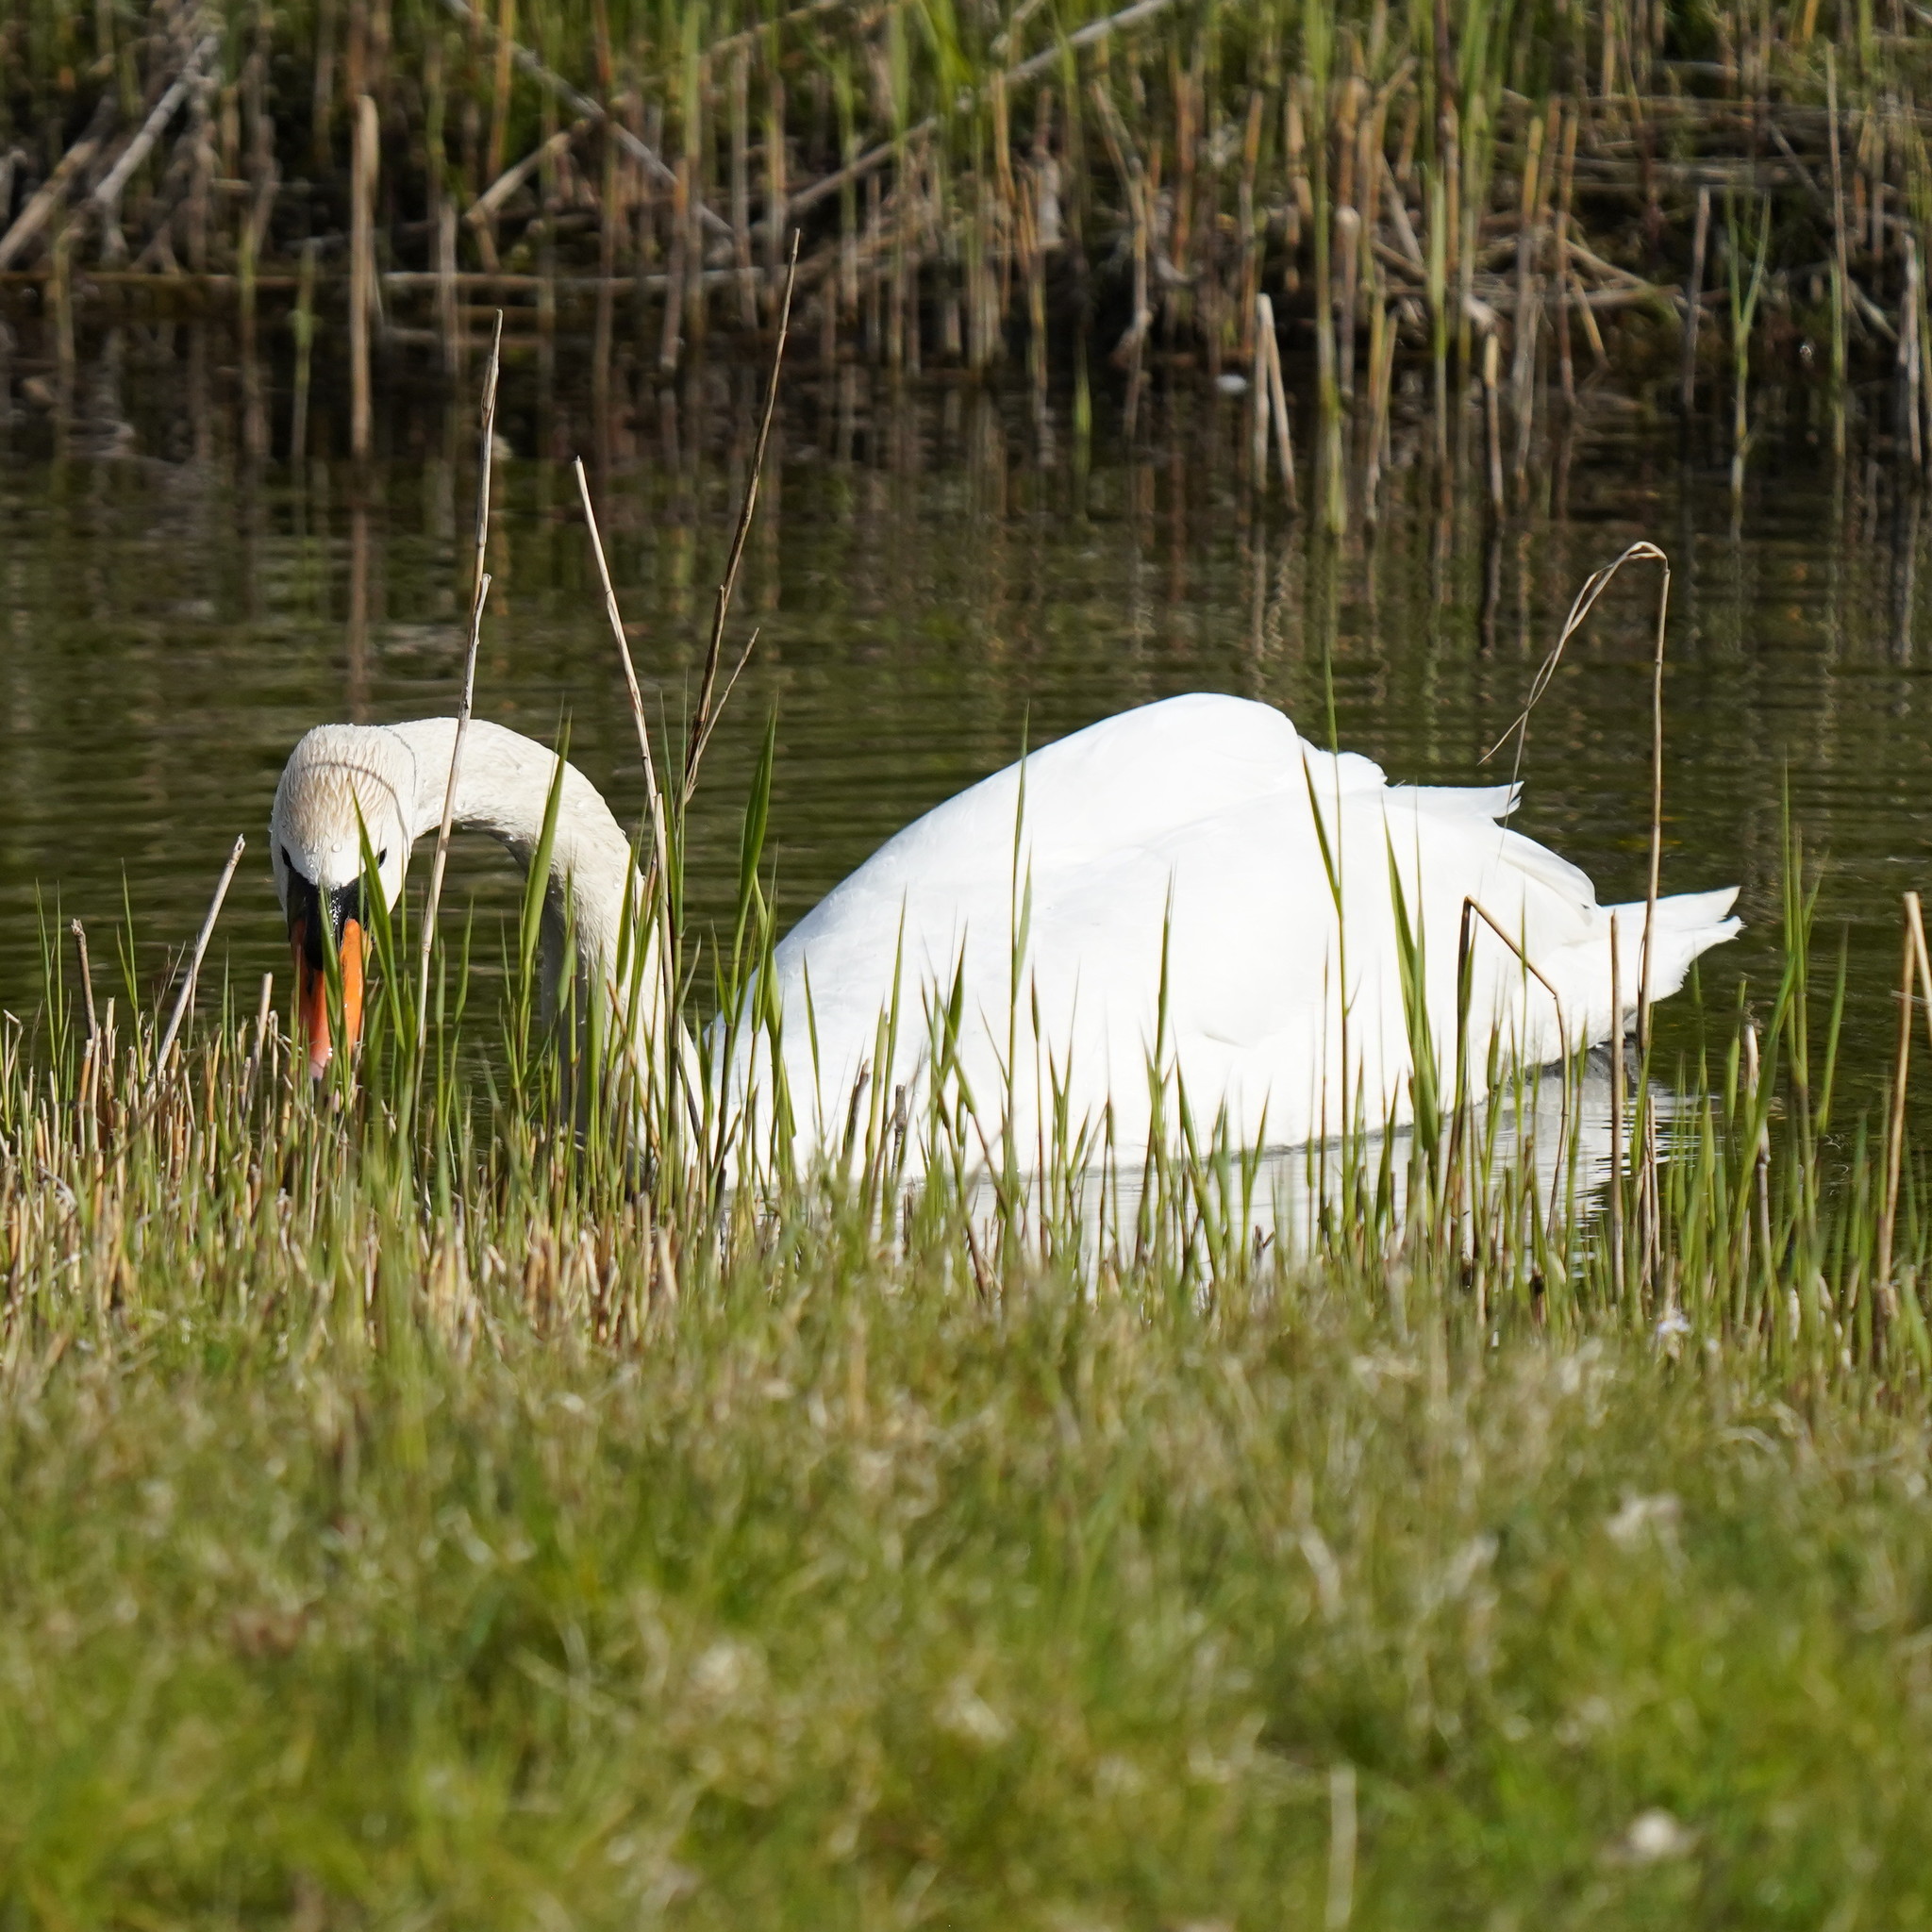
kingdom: Animalia
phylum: Chordata
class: Aves
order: Anseriformes
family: Anatidae
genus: Cygnus
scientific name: Cygnus olor
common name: Mute swan
